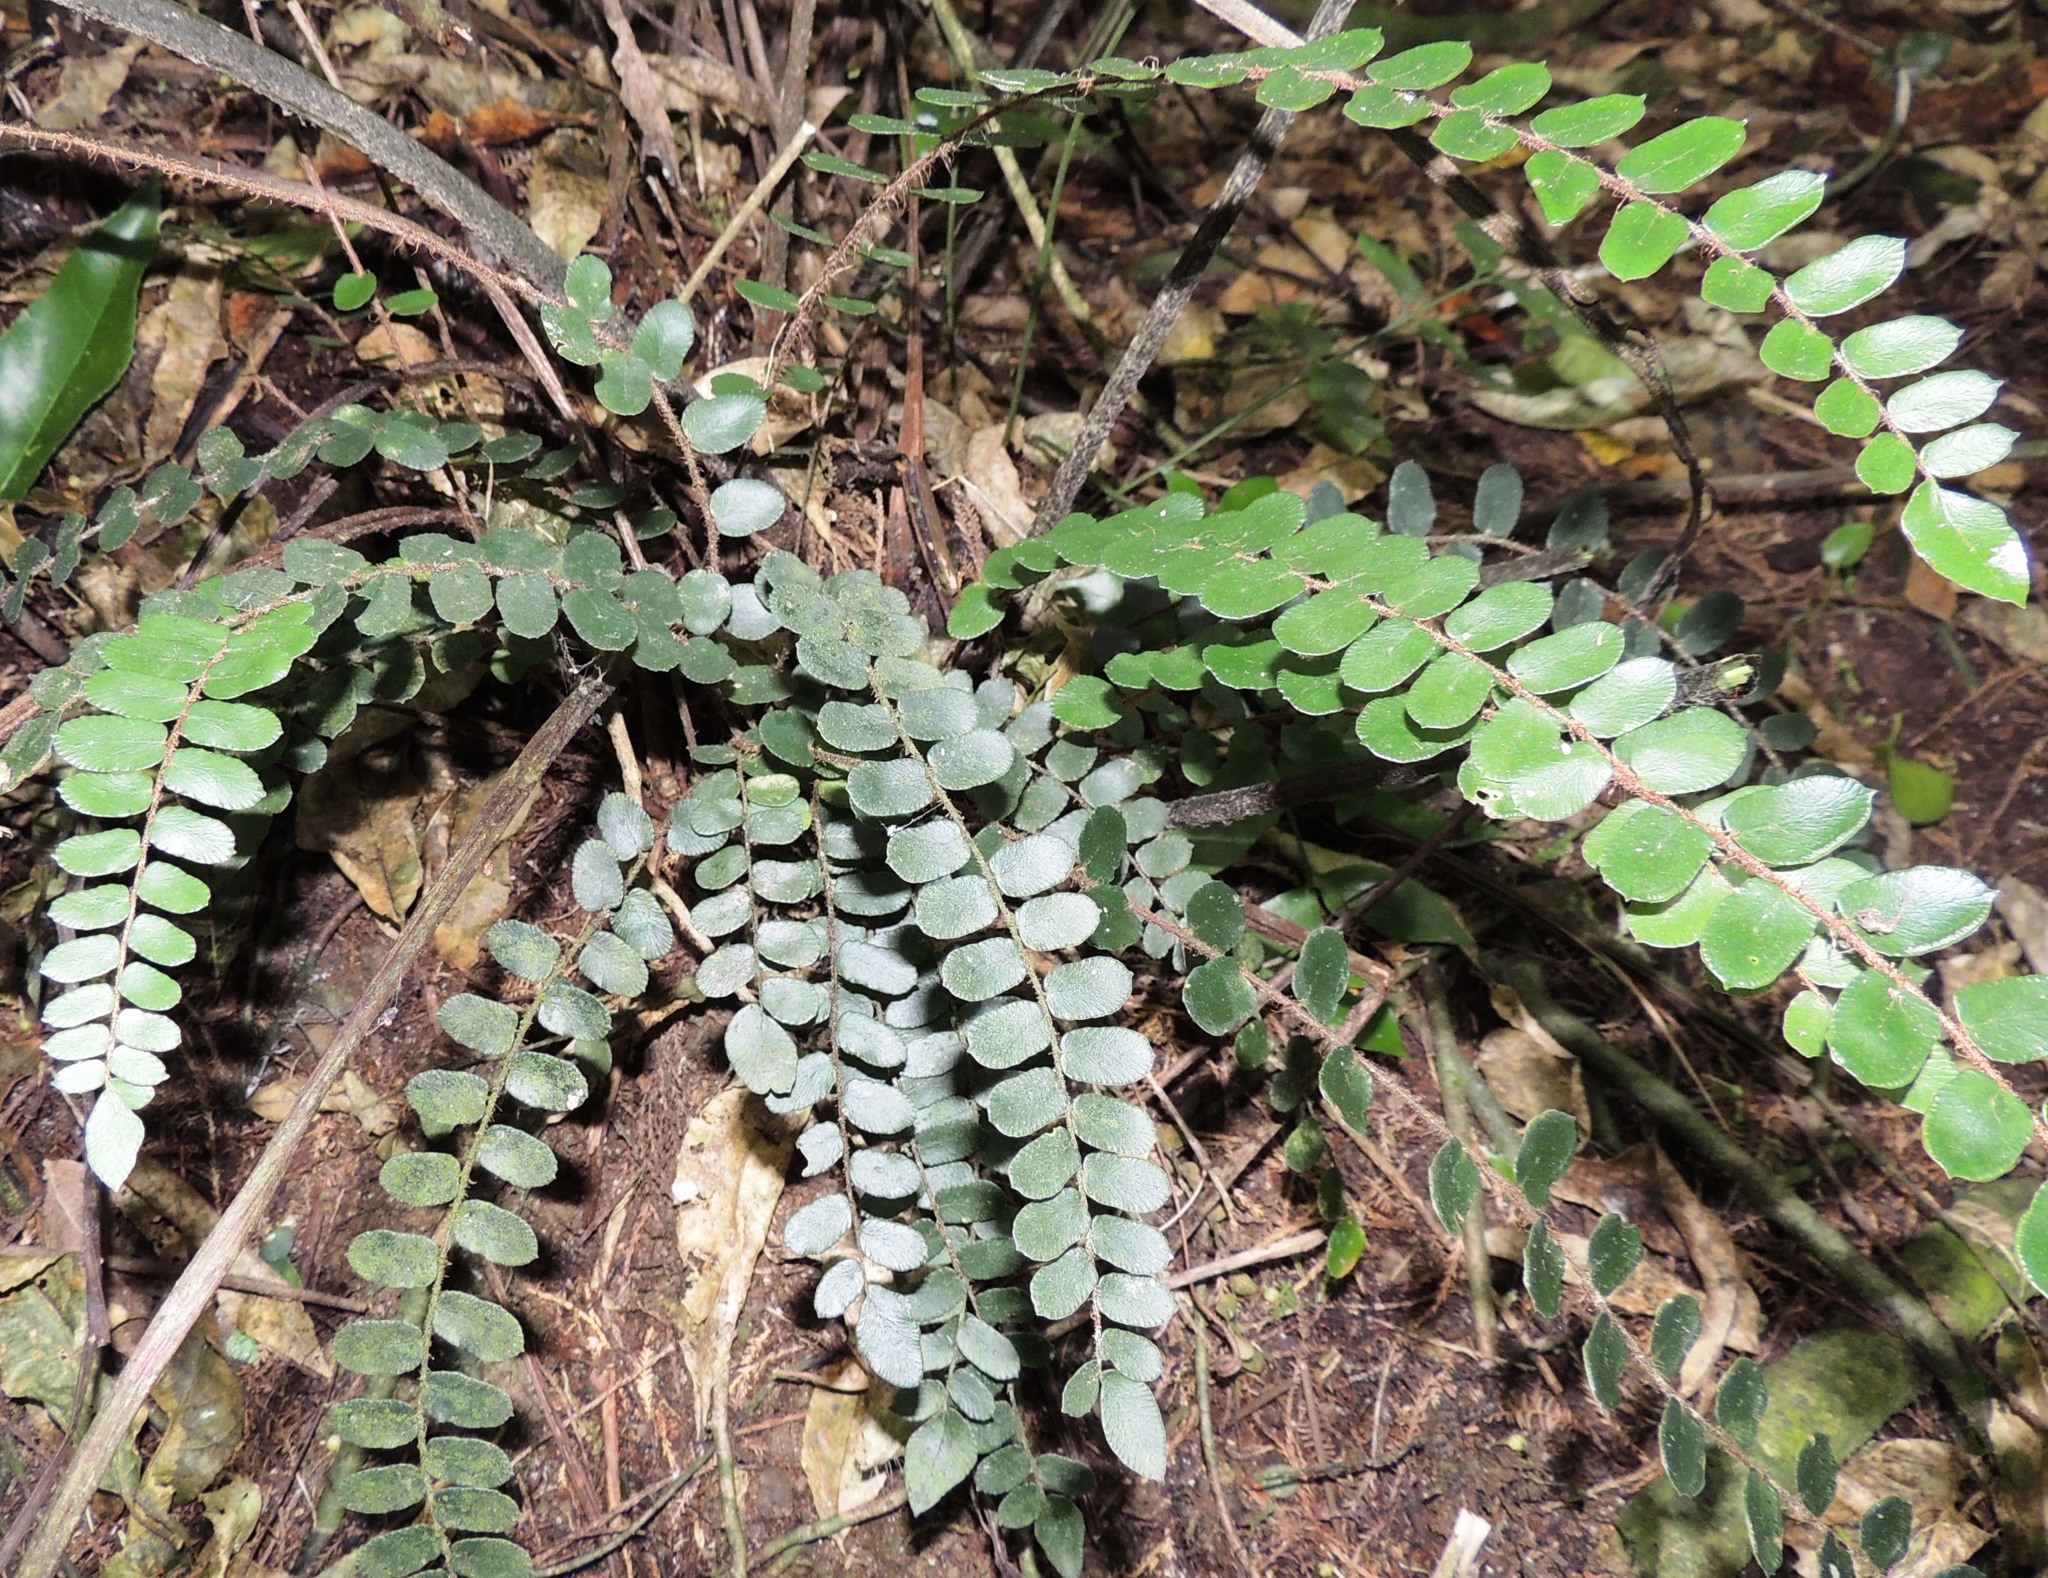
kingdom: Plantae
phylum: Tracheophyta
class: Polypodiopsida
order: Polypodiales
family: Pteridaceae
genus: Pellaea
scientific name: Pellaea rotundifolia
